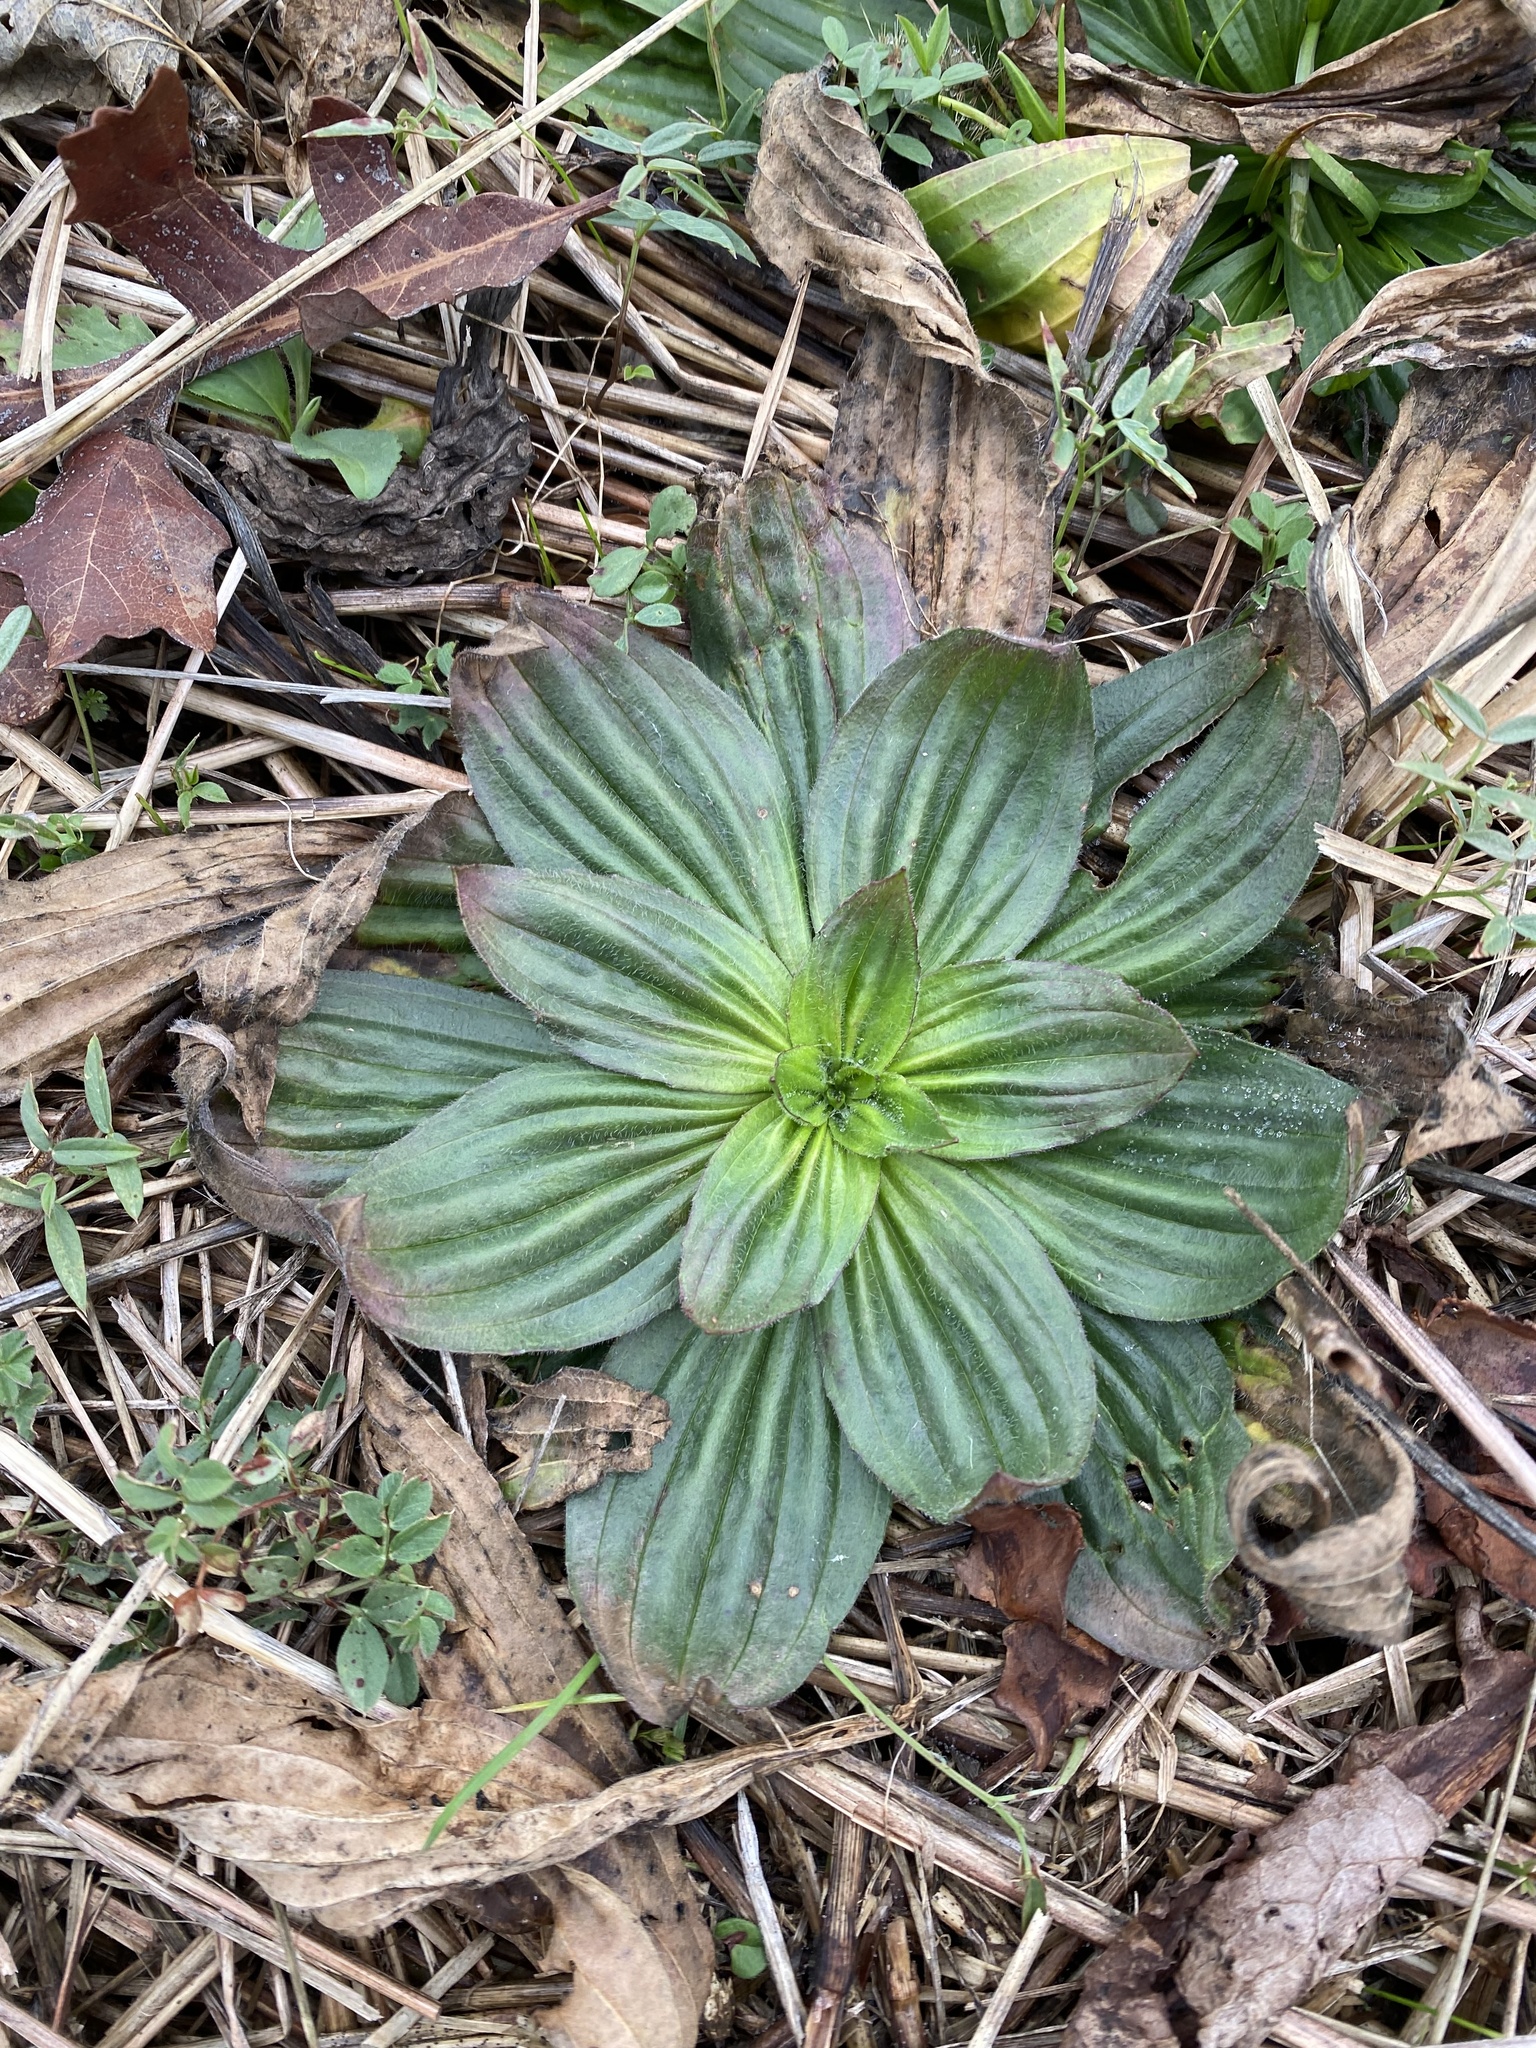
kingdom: Plantae
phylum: Tracheophyta
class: Magnoliopsida
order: Lamiales
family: Plantaginaceae
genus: Plantago
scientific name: Plantago lanceolata
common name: Ribwort plantain
